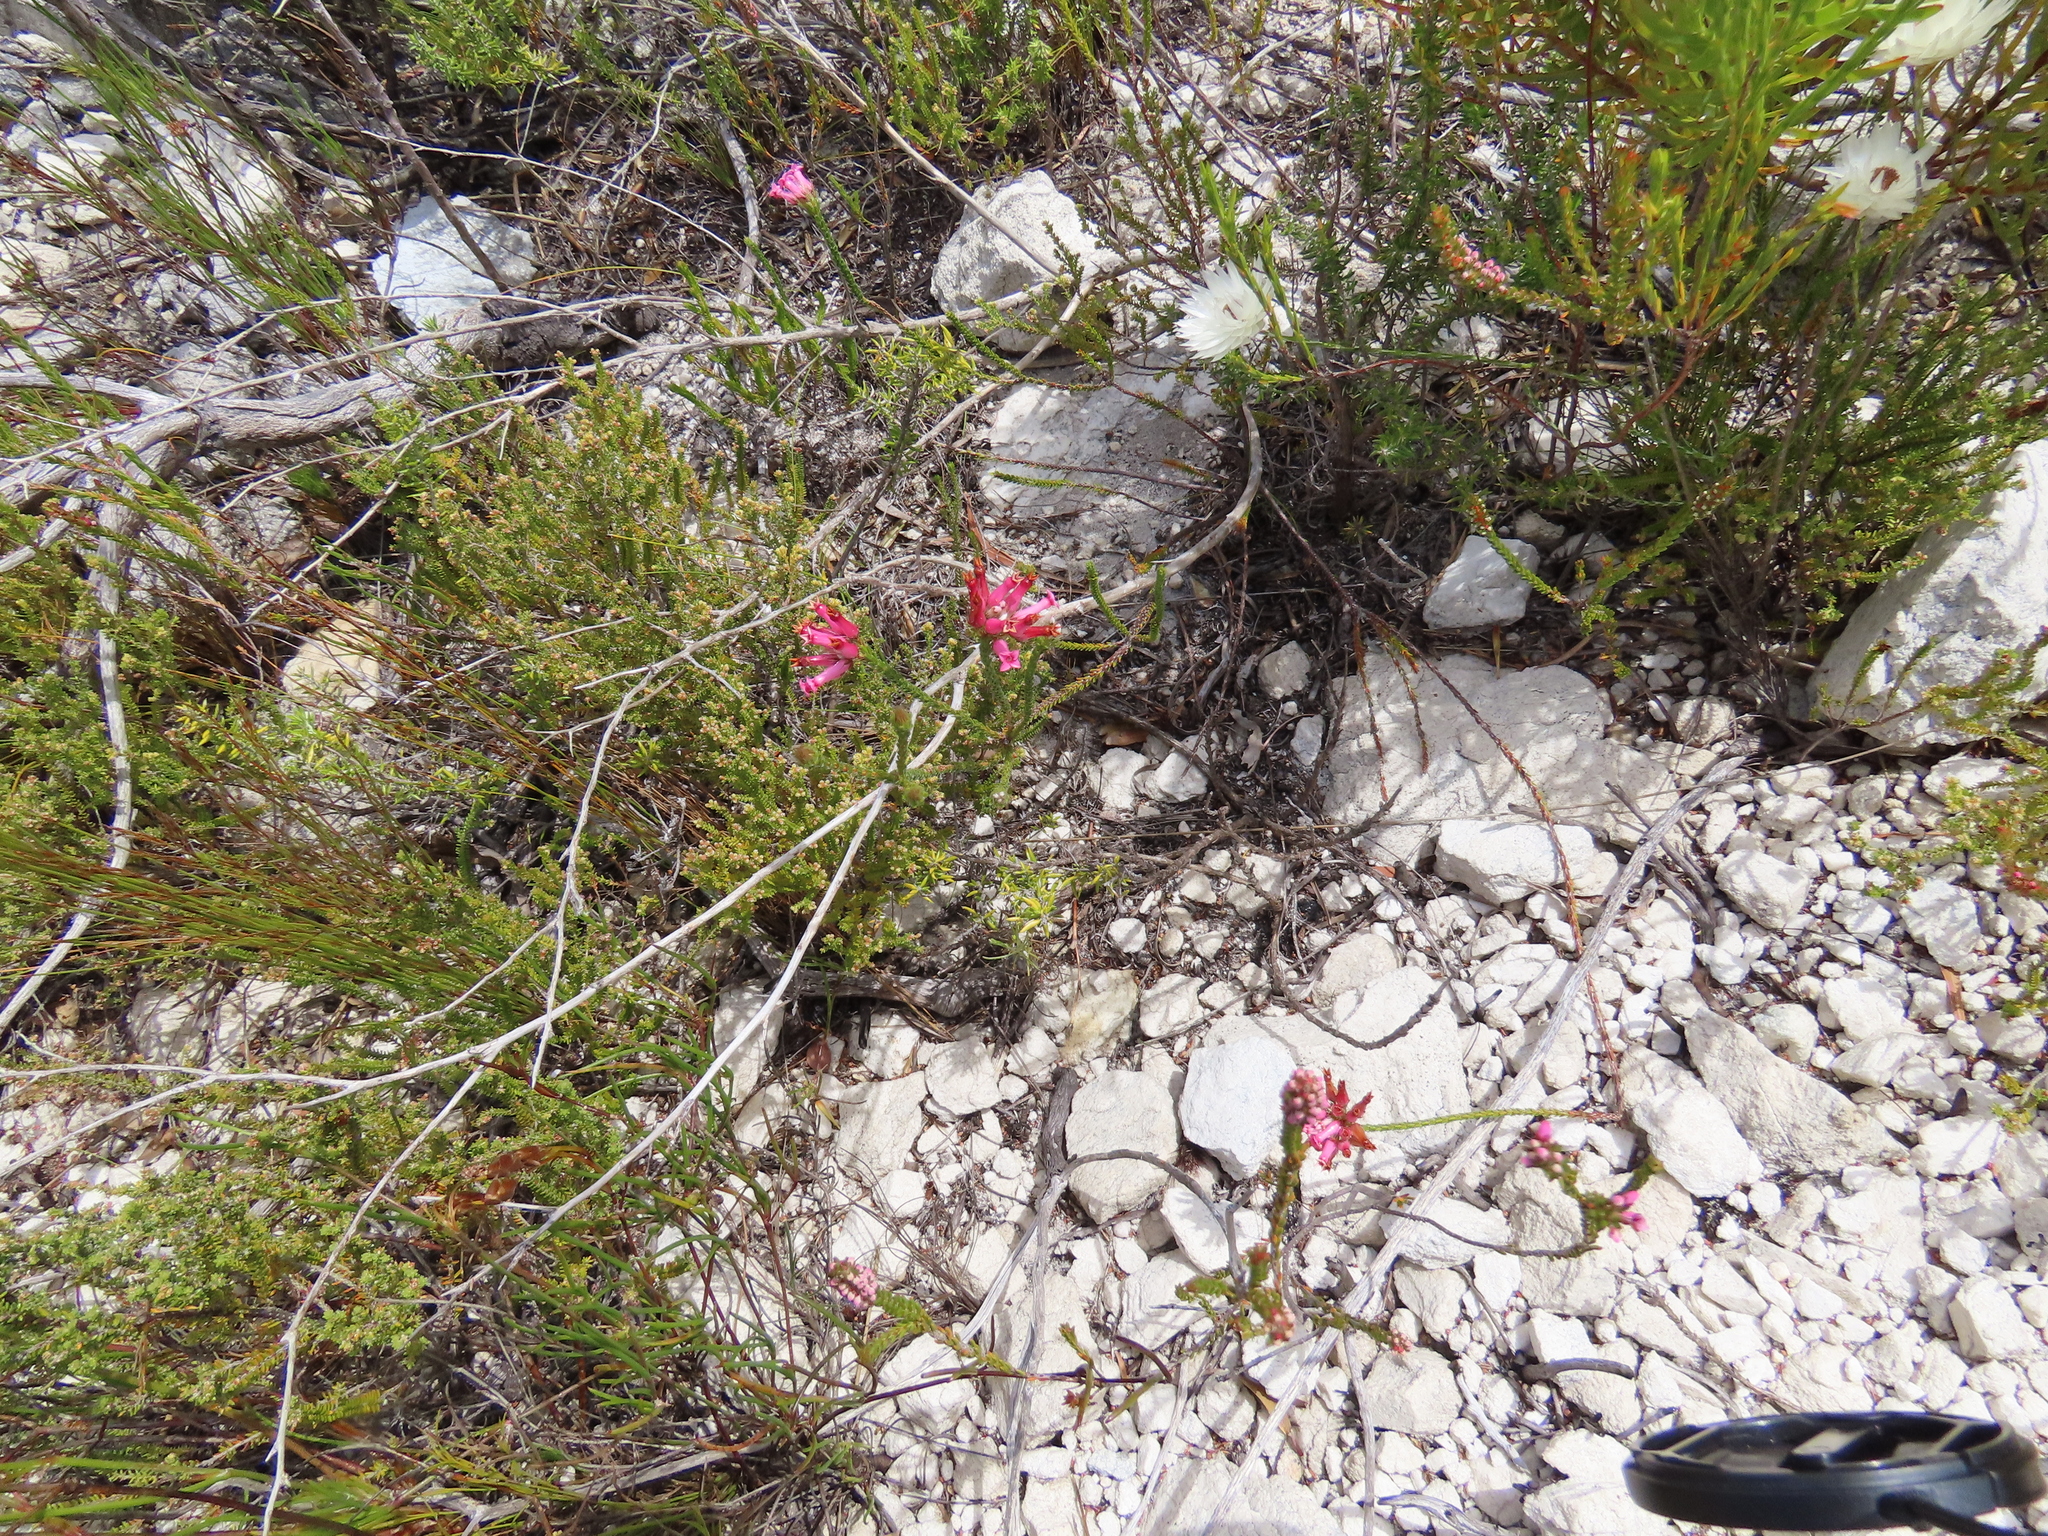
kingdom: Plantae
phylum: Tracheophyta
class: Magnoliopsida
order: Ericales
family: Ericaceae
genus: Erica
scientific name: Erica gysbertii
